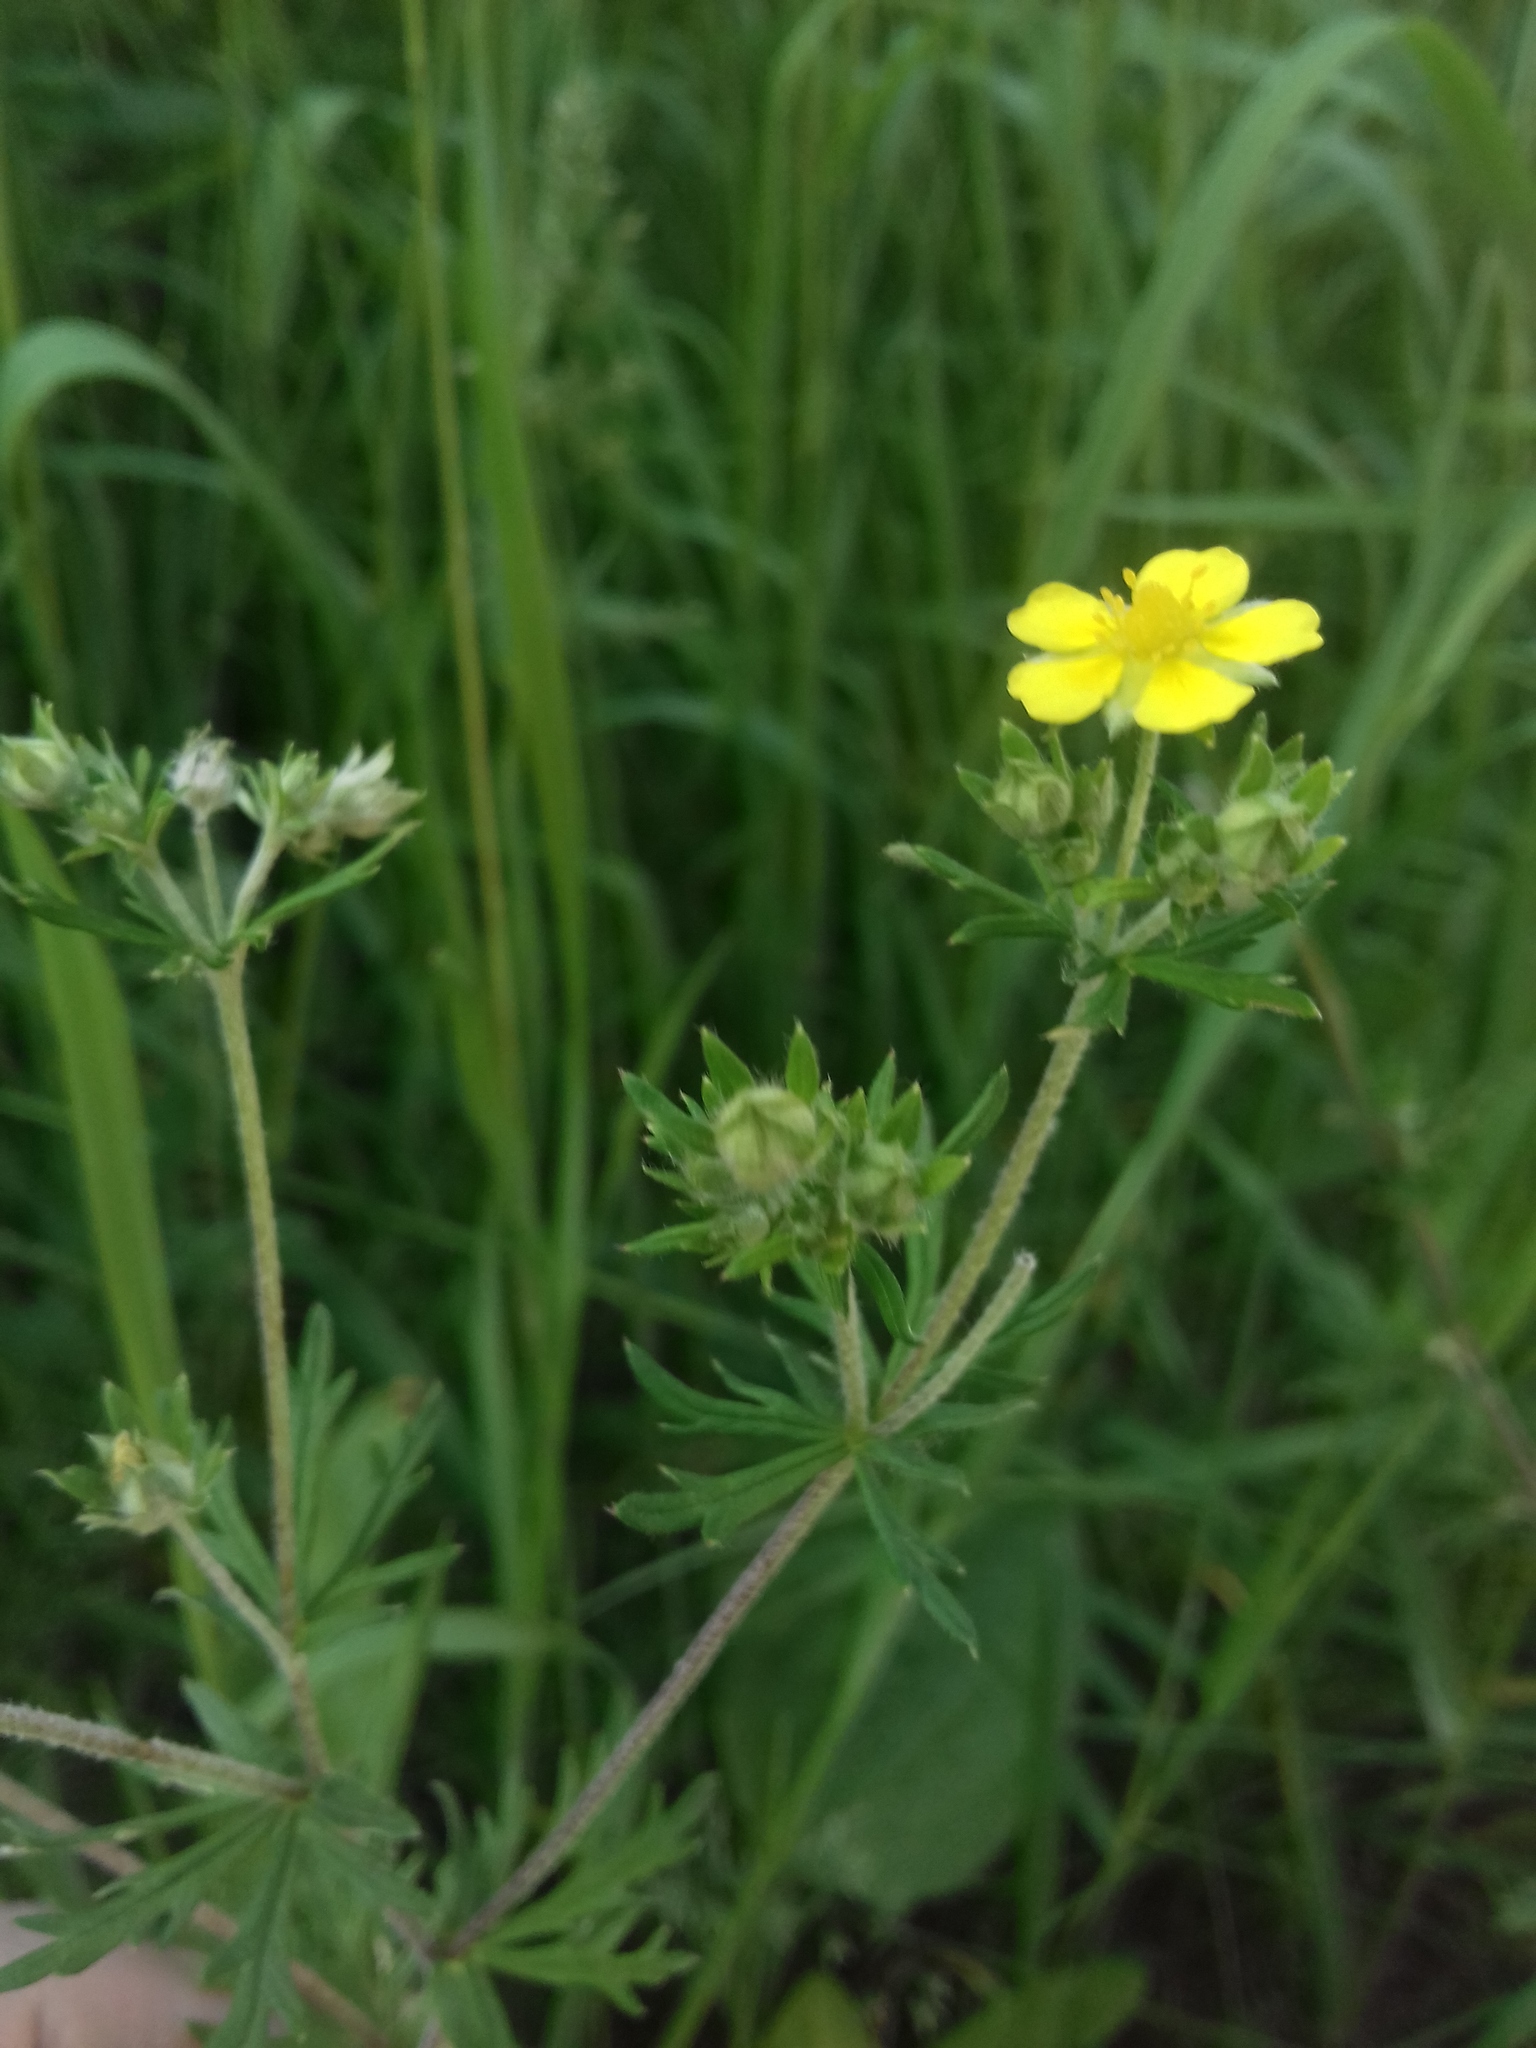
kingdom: Plantae
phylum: Tracheophyta
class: Magnoliopsida
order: Rosales
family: Rosaceae
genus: Potentilla
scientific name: Potentilla argentea
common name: Hoary cinquefoil
